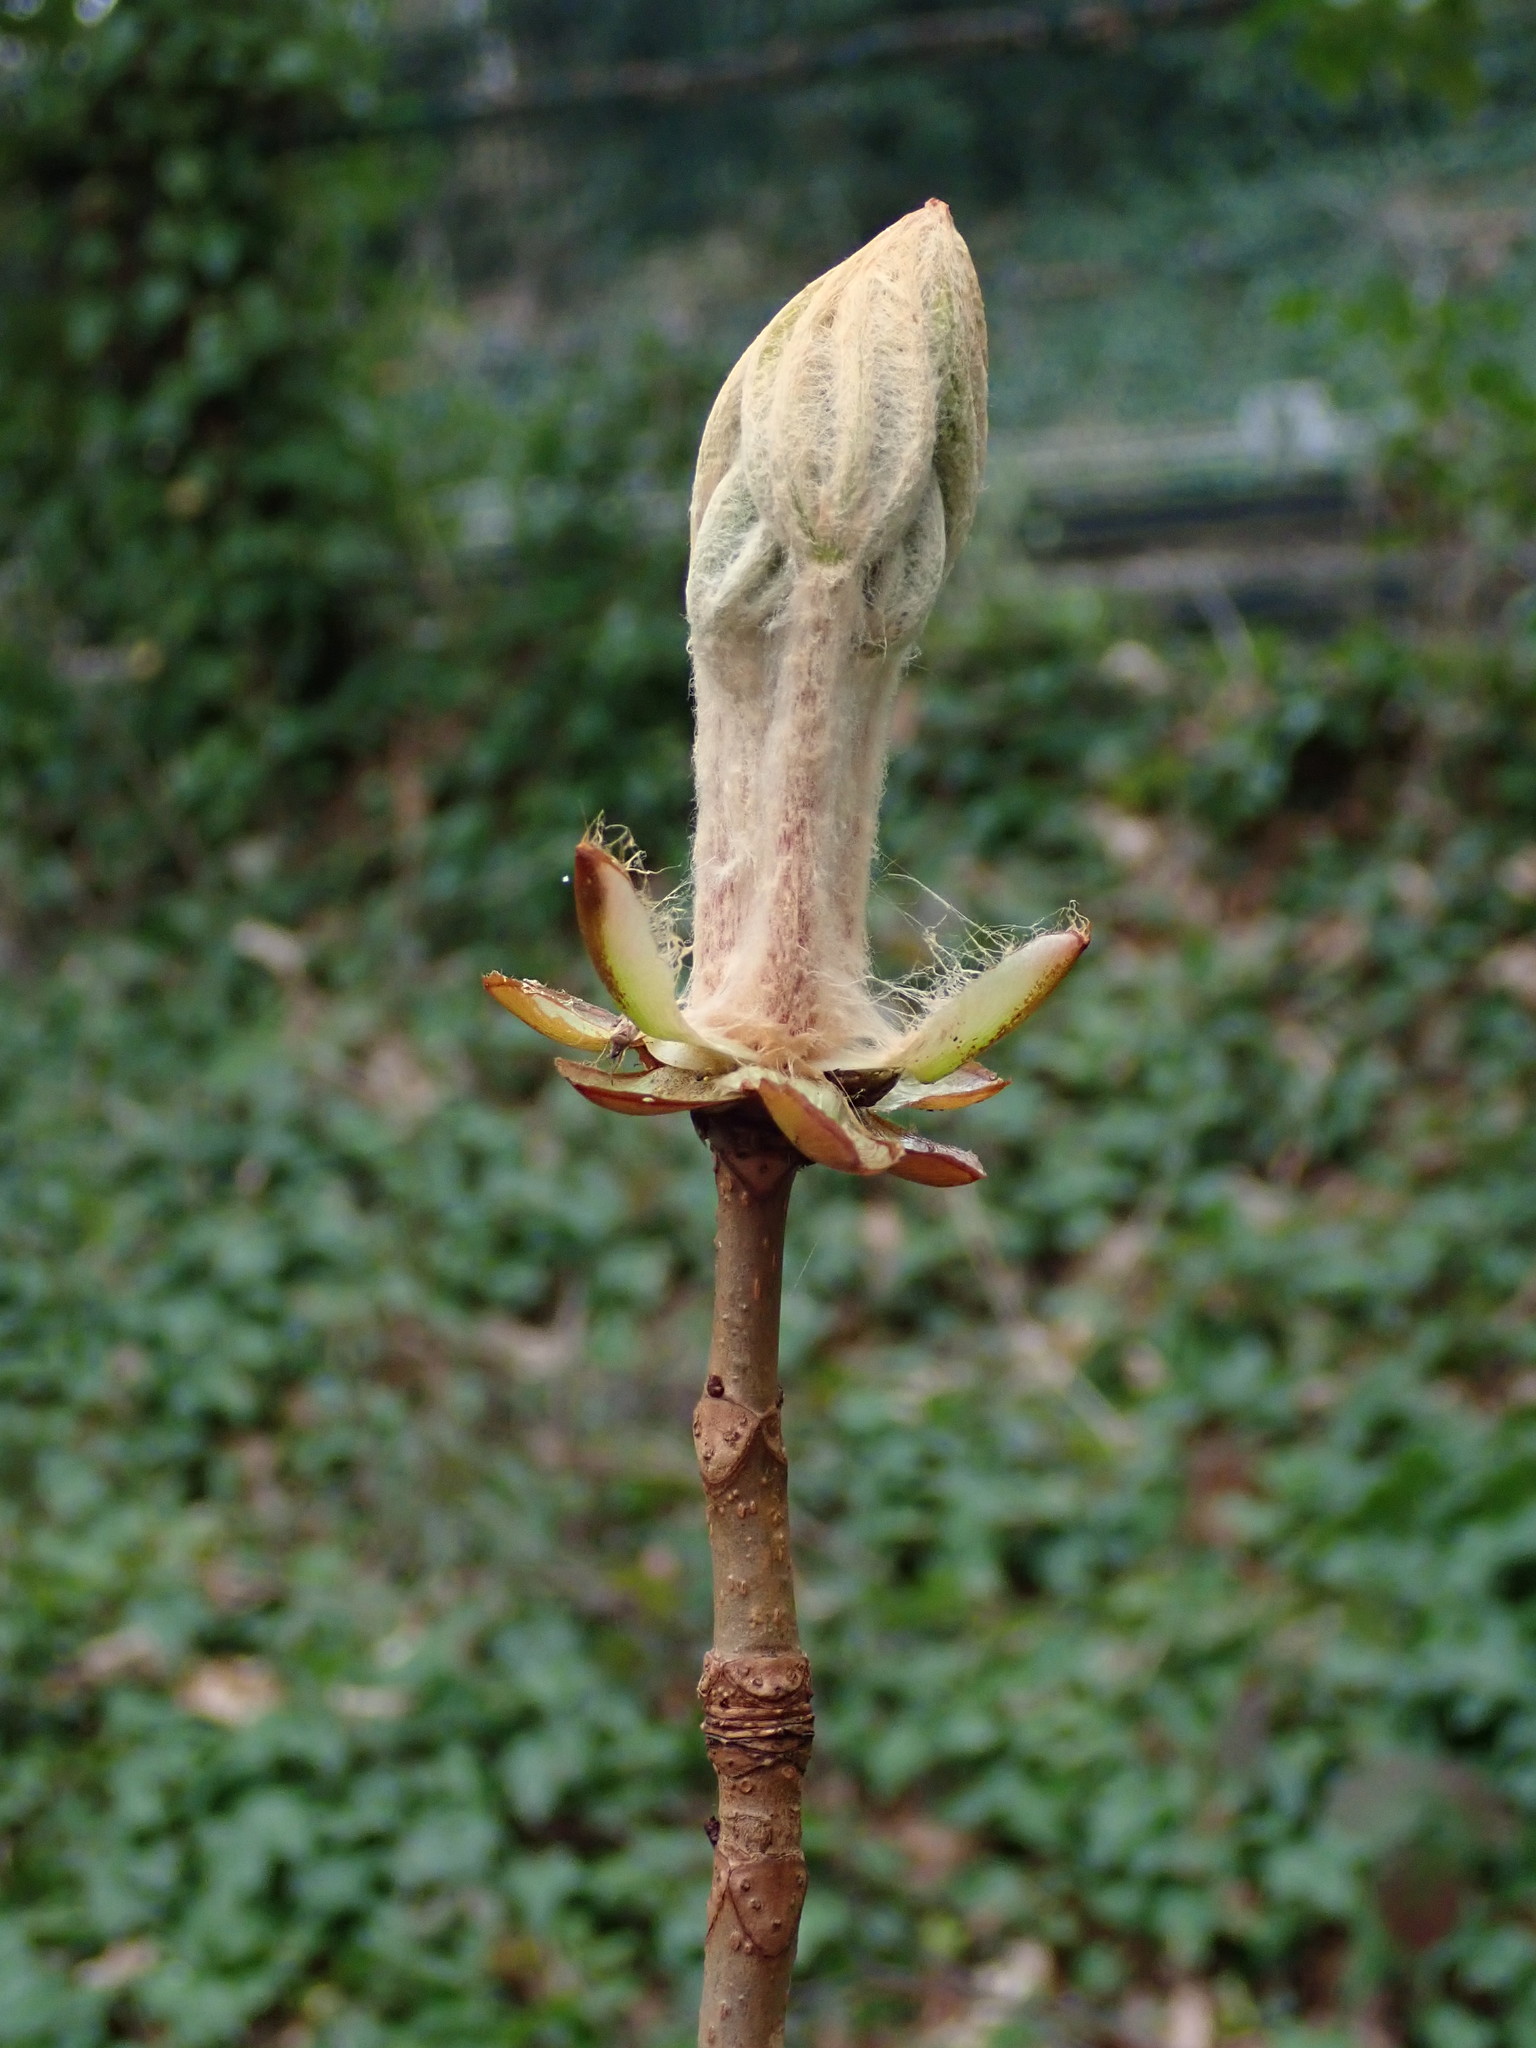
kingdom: Plantae
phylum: Tracheophyta
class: Magnoliopsida
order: Sapindales
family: Sapindaceae
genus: Aesculus
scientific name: Aesculus hippocastanum
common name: Horse-chestnut
